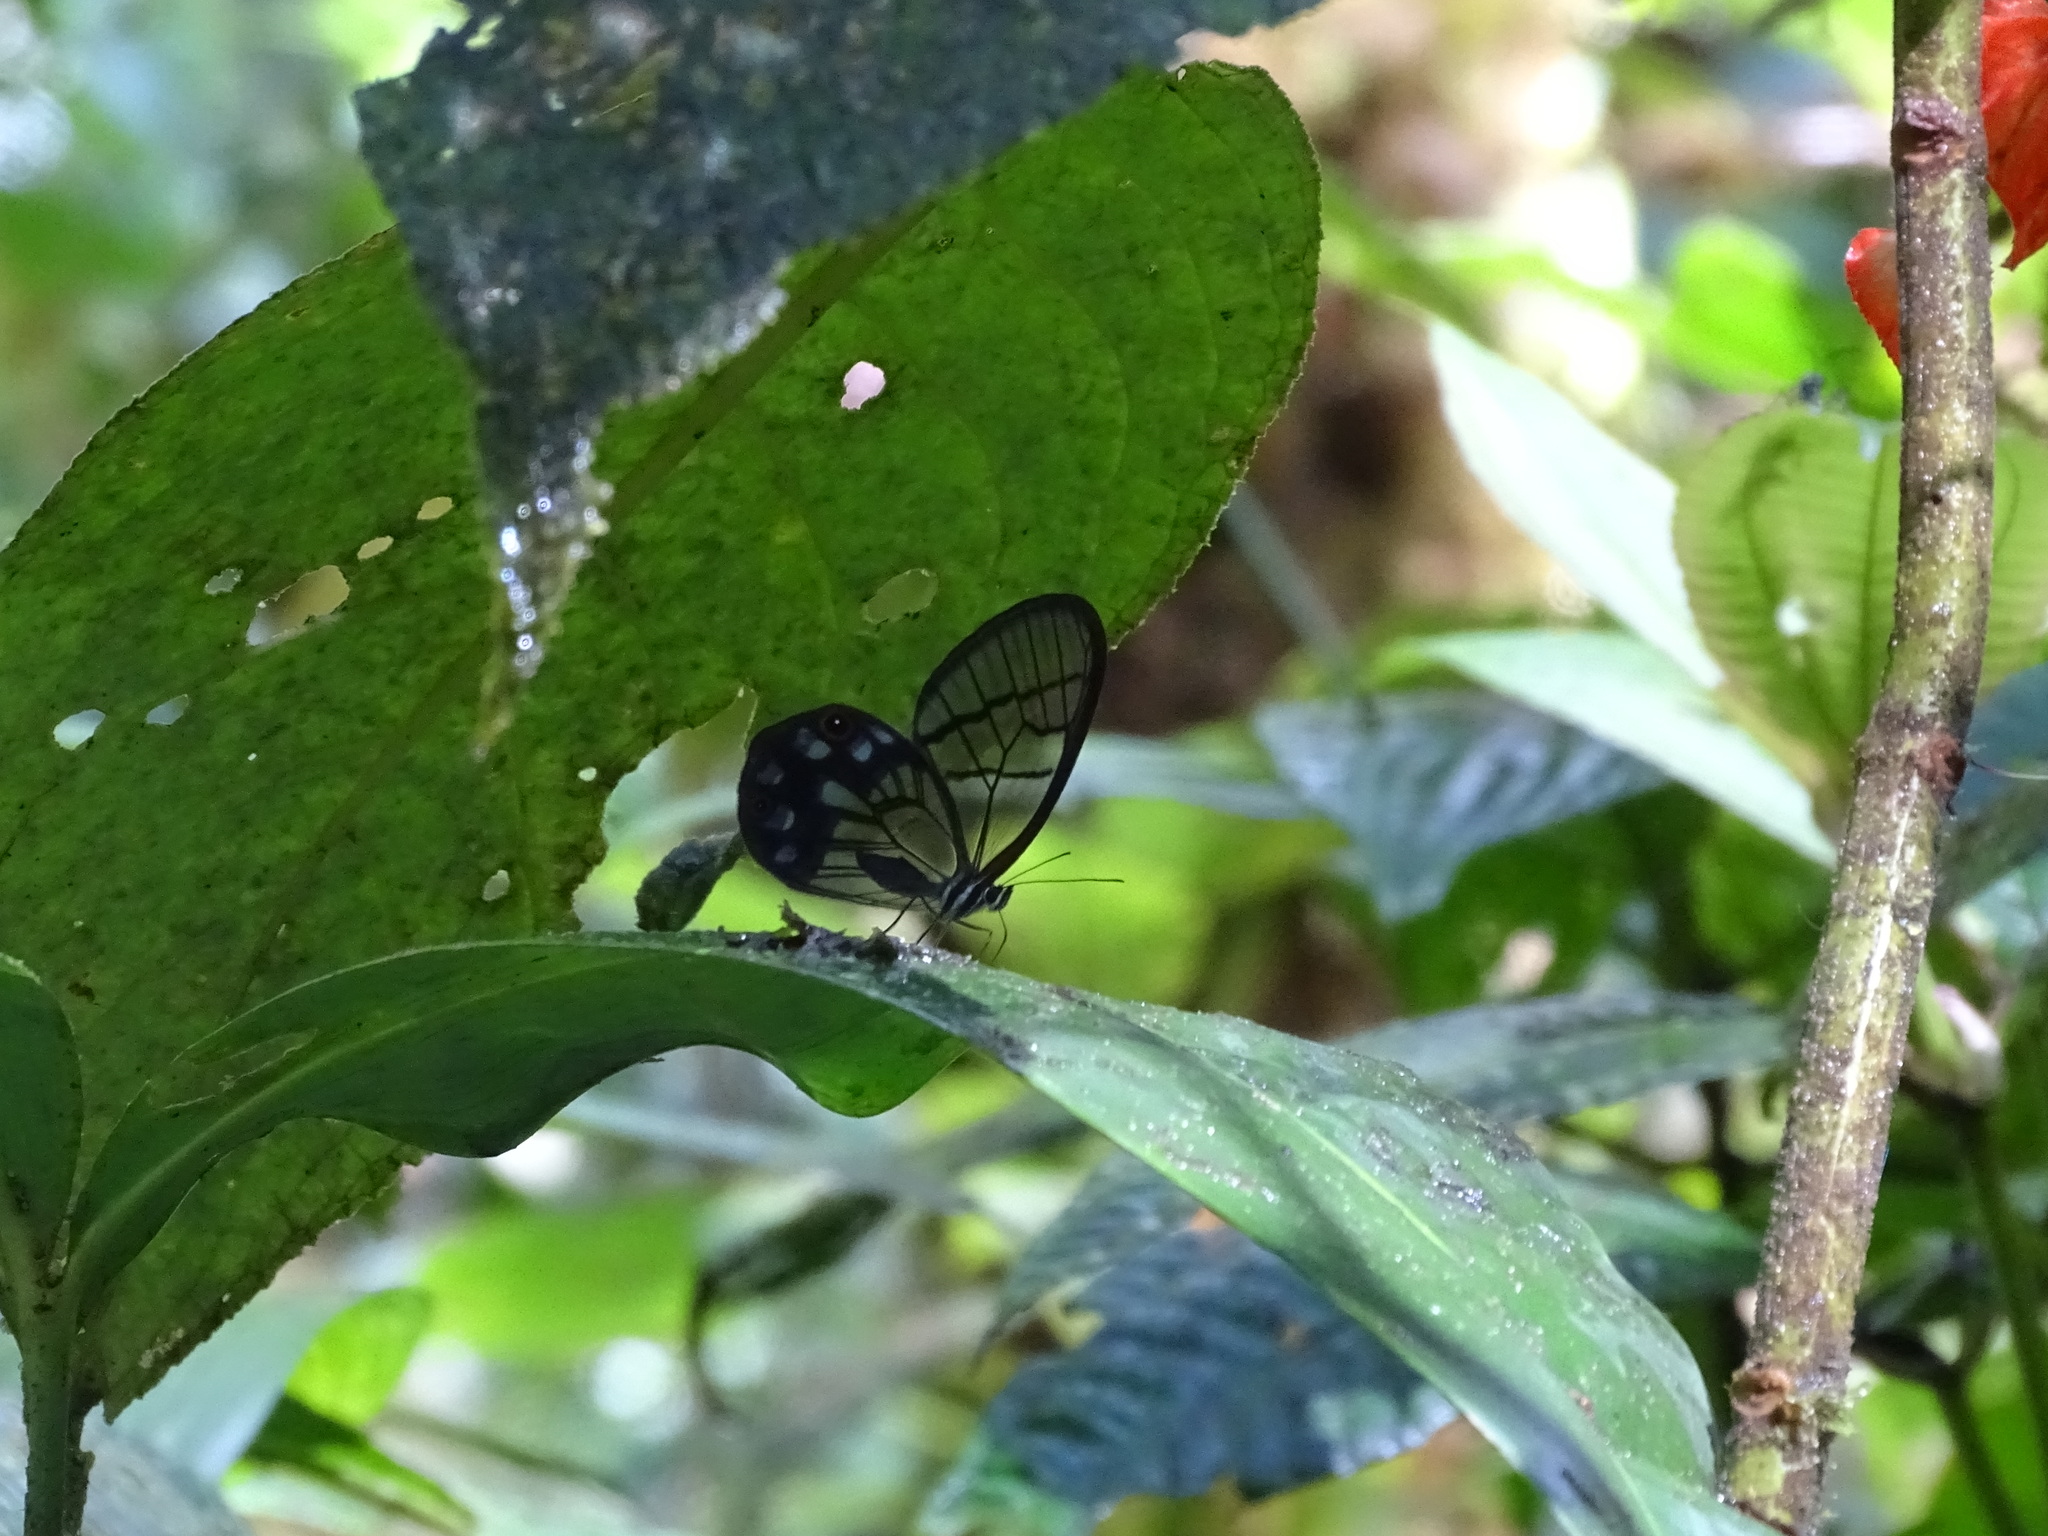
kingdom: Animalia
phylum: Arthropoda
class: Insecta
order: Lepidoptera
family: Nymphalidae
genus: Pseudohaetera
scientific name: Pseudohaetera
